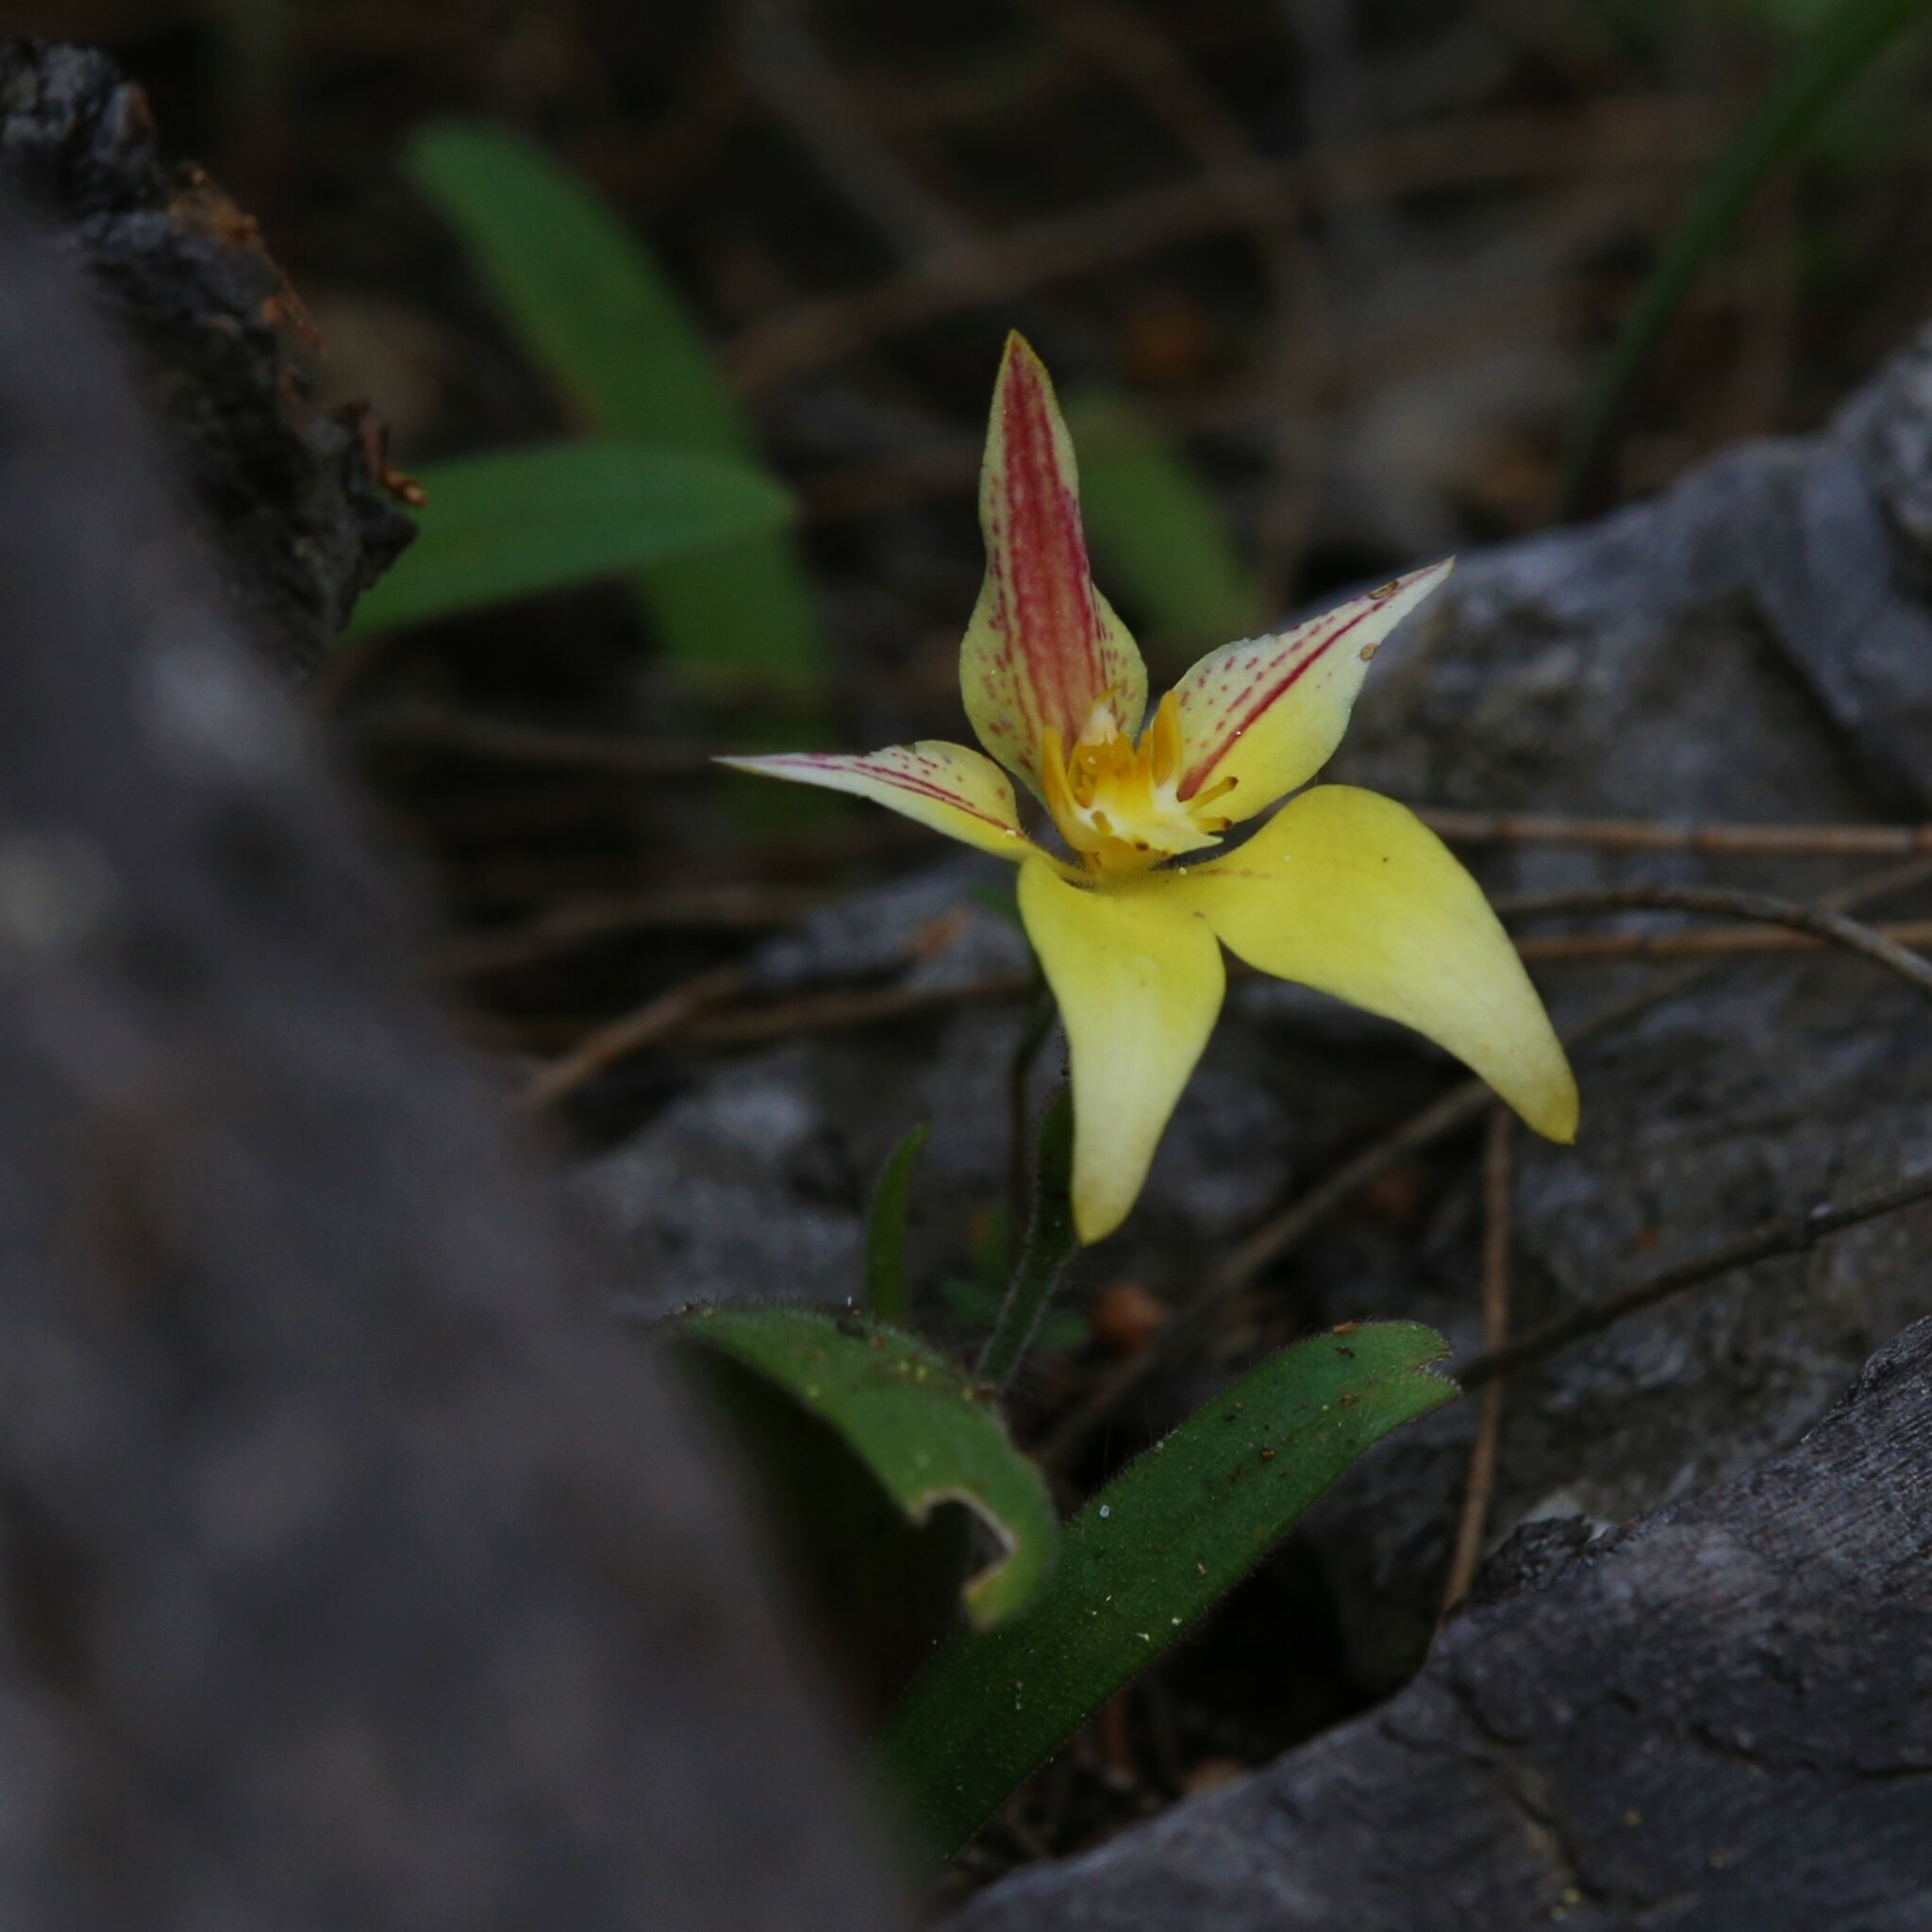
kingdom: Plantae
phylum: Tracheophyta
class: Liliopsida
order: Asparagales
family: Orchidaceae
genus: Caladenia
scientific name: Caladenia flava
